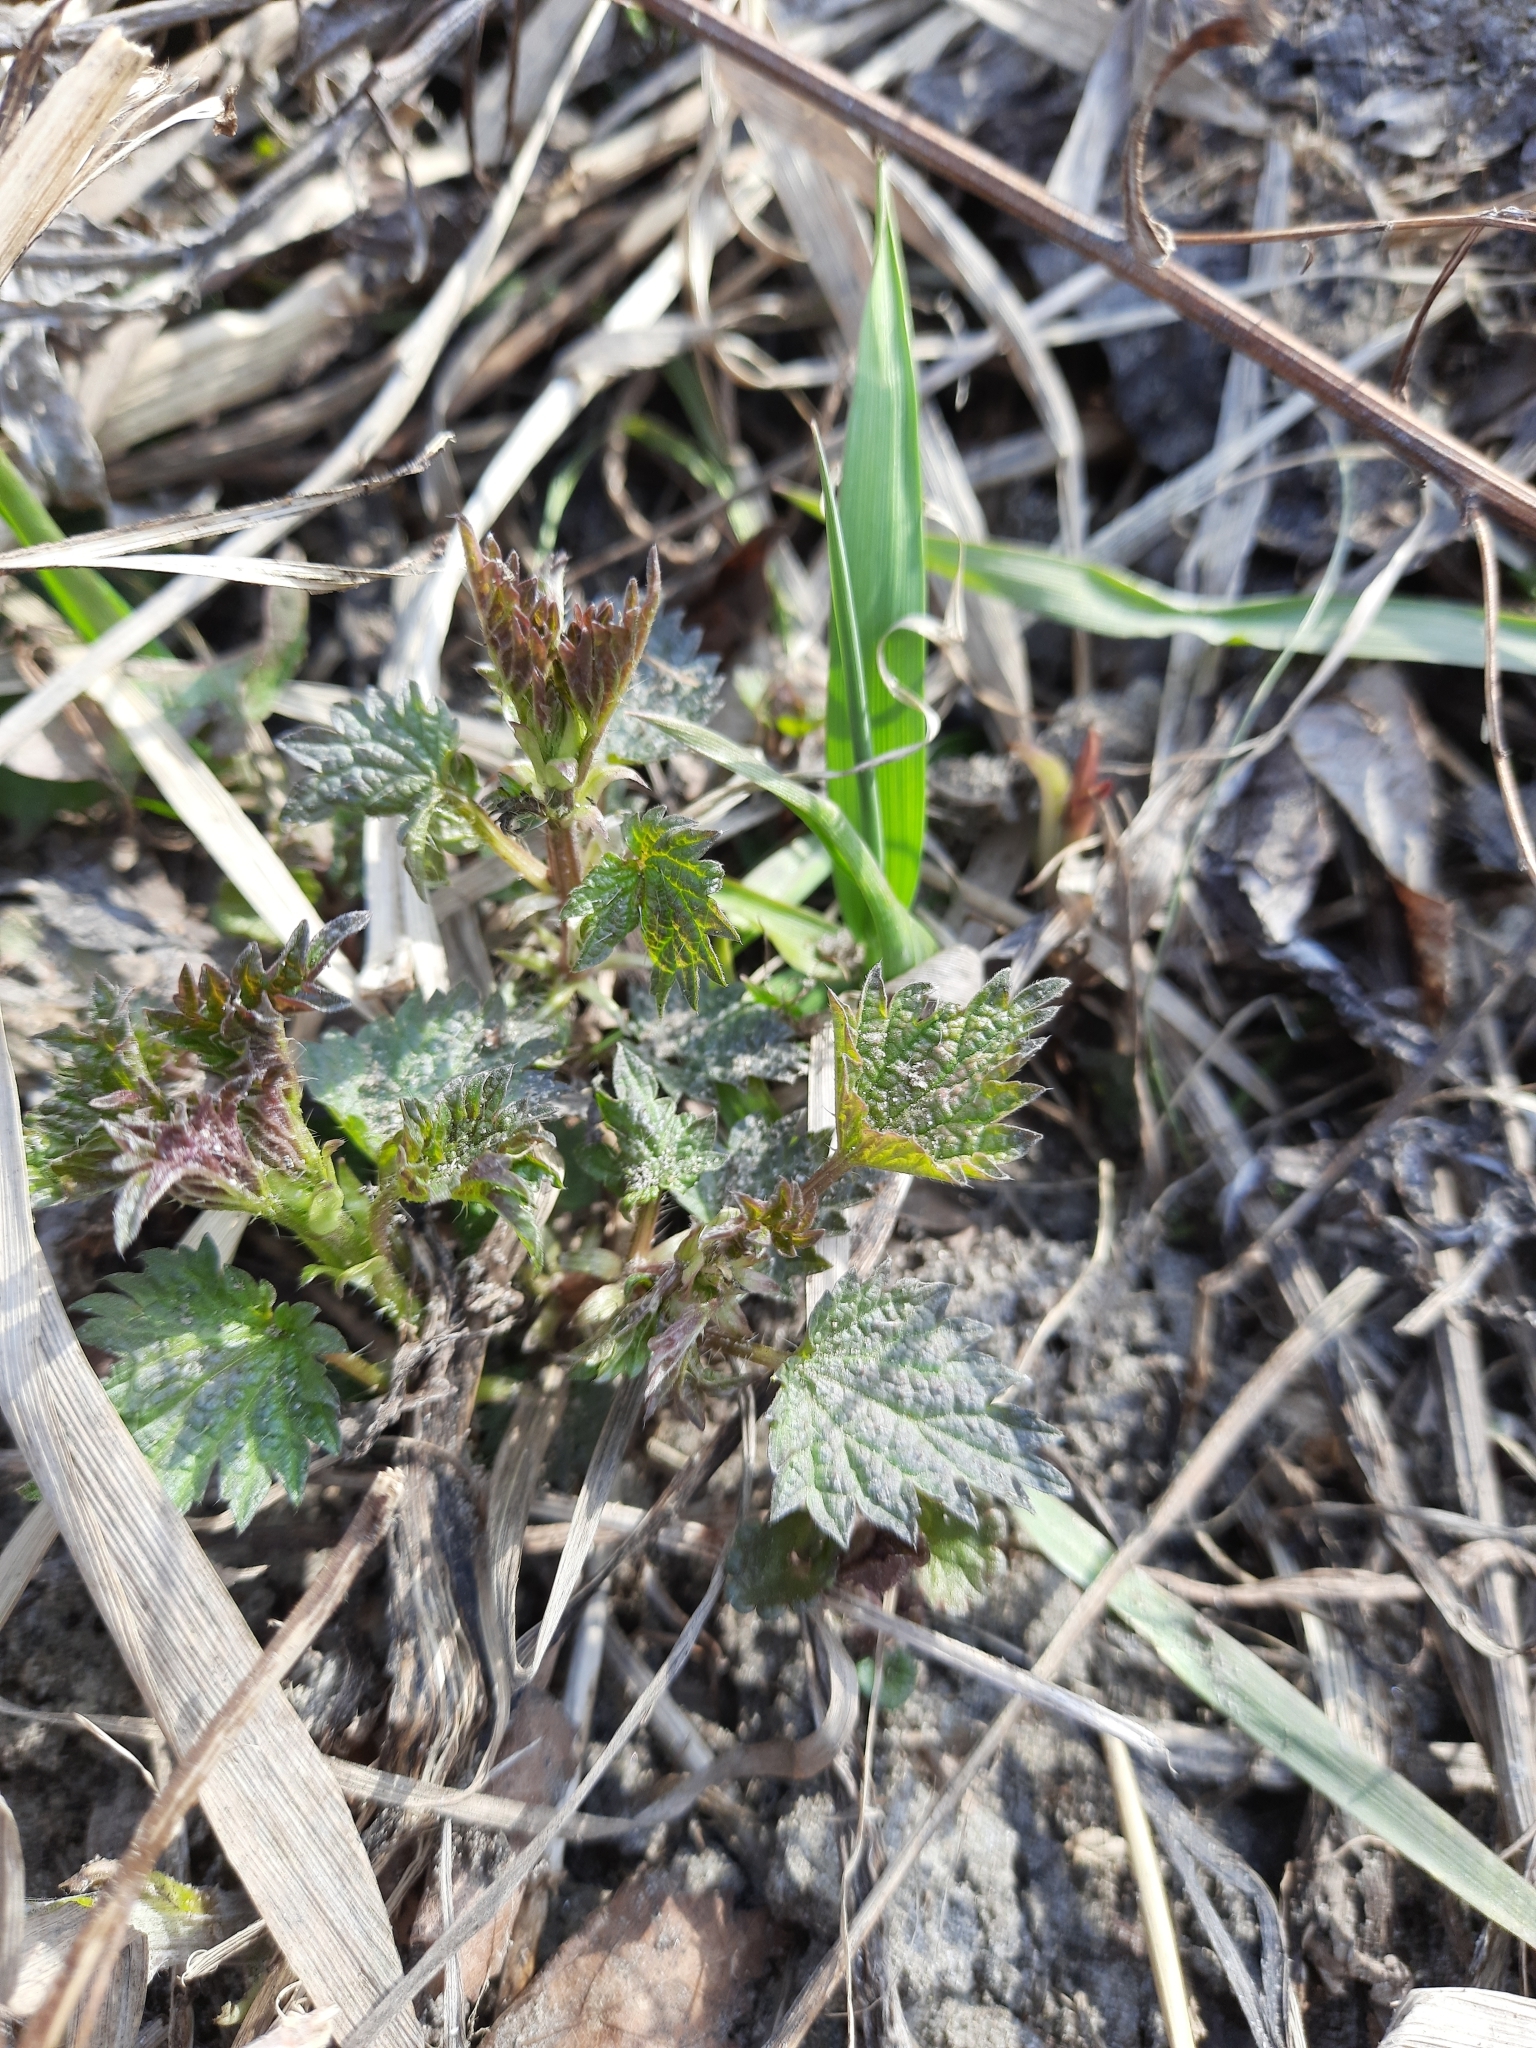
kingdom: Plantae
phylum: Tracheophyta
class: Magnoliopsida
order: Rosales
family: Urticaceae
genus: Urtica
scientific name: Urtica dioica
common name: Common nettle
